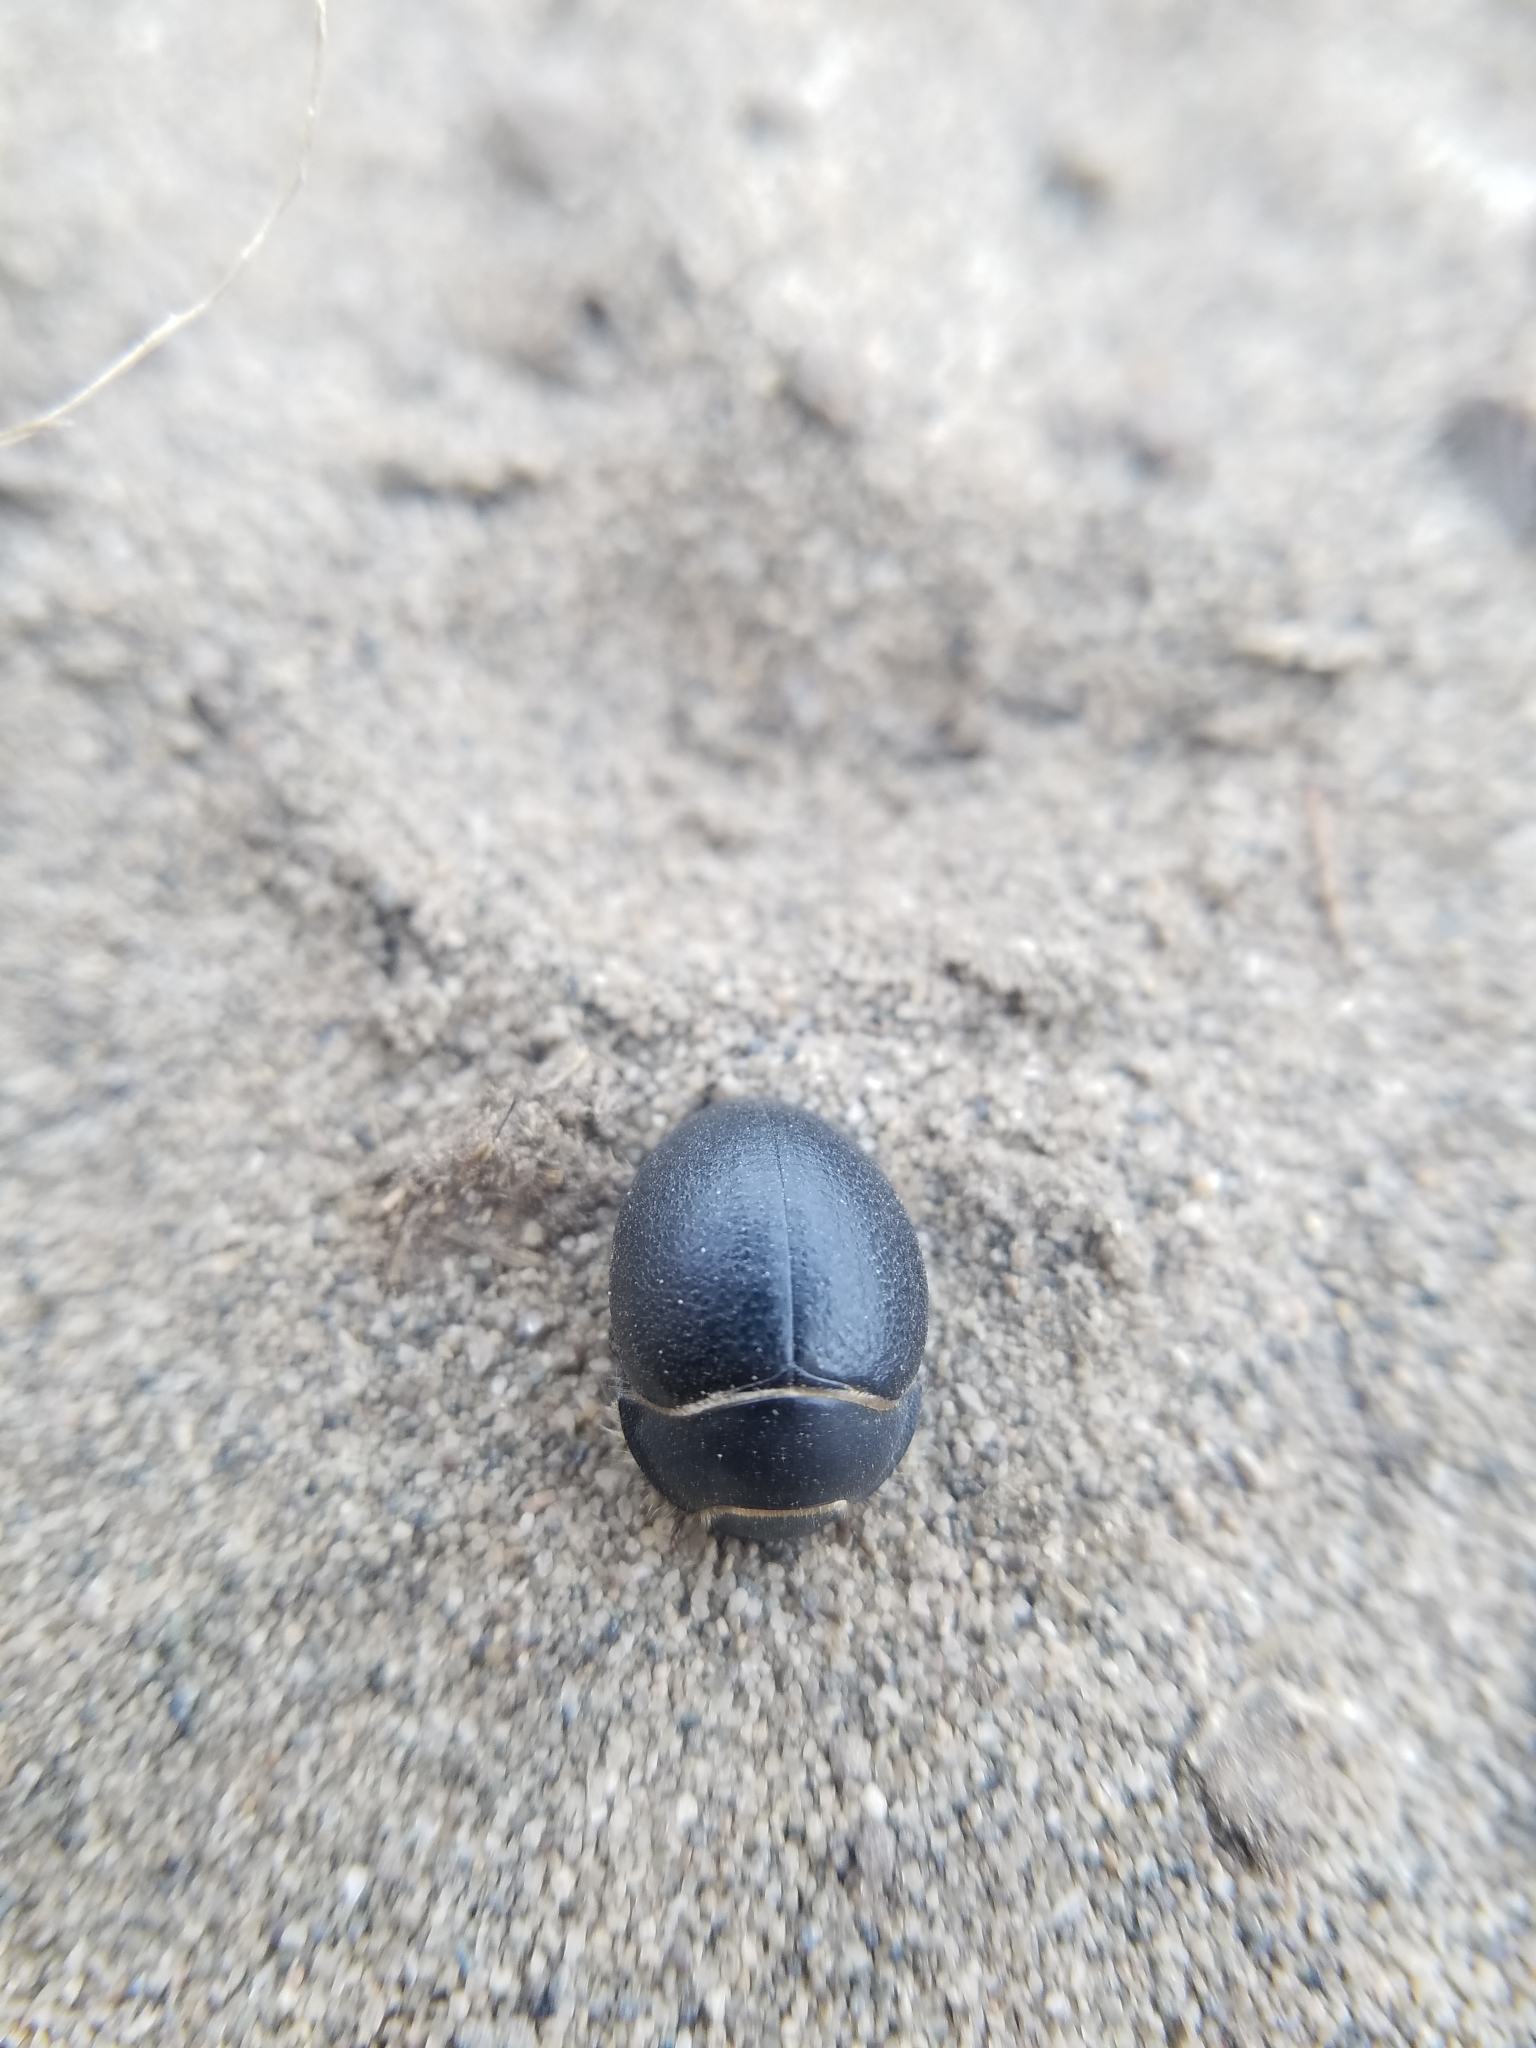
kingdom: Animalia
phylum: Arthropoda
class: Insecta
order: Coleoptera
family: Tenebrionidae
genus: Eusattus
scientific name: Eusattus muricatus
